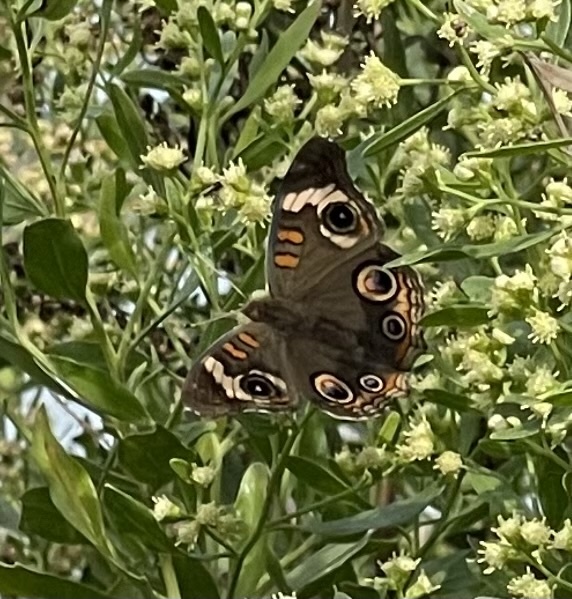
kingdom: Animalia
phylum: Arthropoda
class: Insecta
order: Lepidoptera
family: Nymphalidae
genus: Junonia
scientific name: Junonia coenia
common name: Common buckeye
